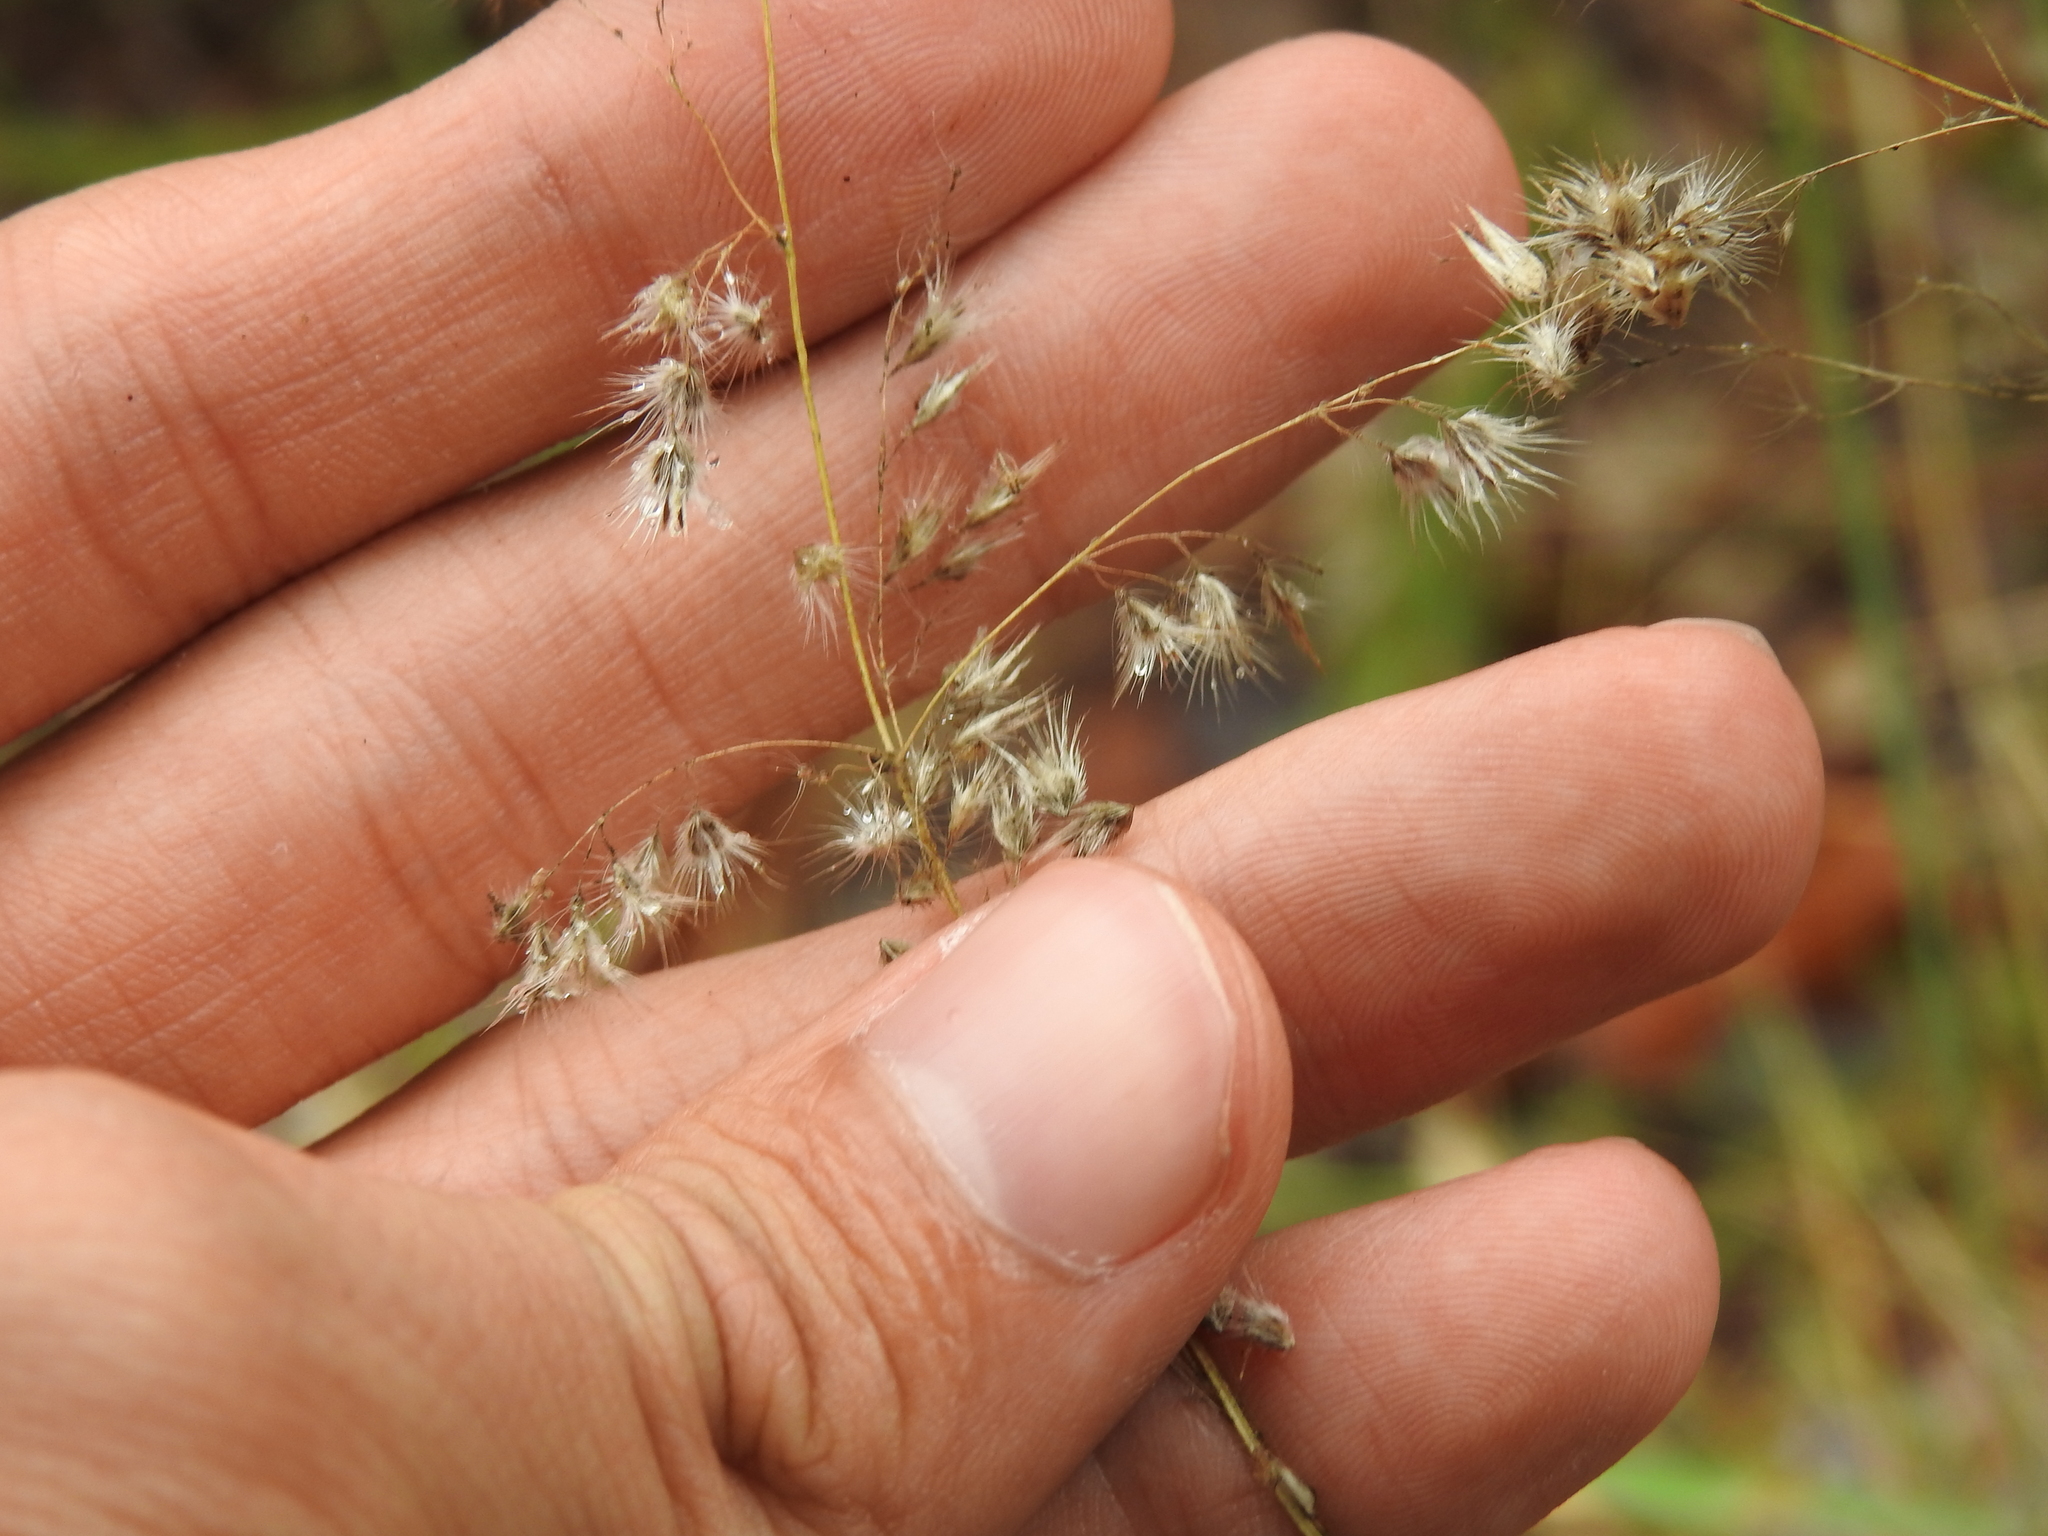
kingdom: Plantae
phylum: Tracheophyta
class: Liliopsida
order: Poales
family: Poaceae
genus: Melinis
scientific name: Melinis repens
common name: Rose natal grass
